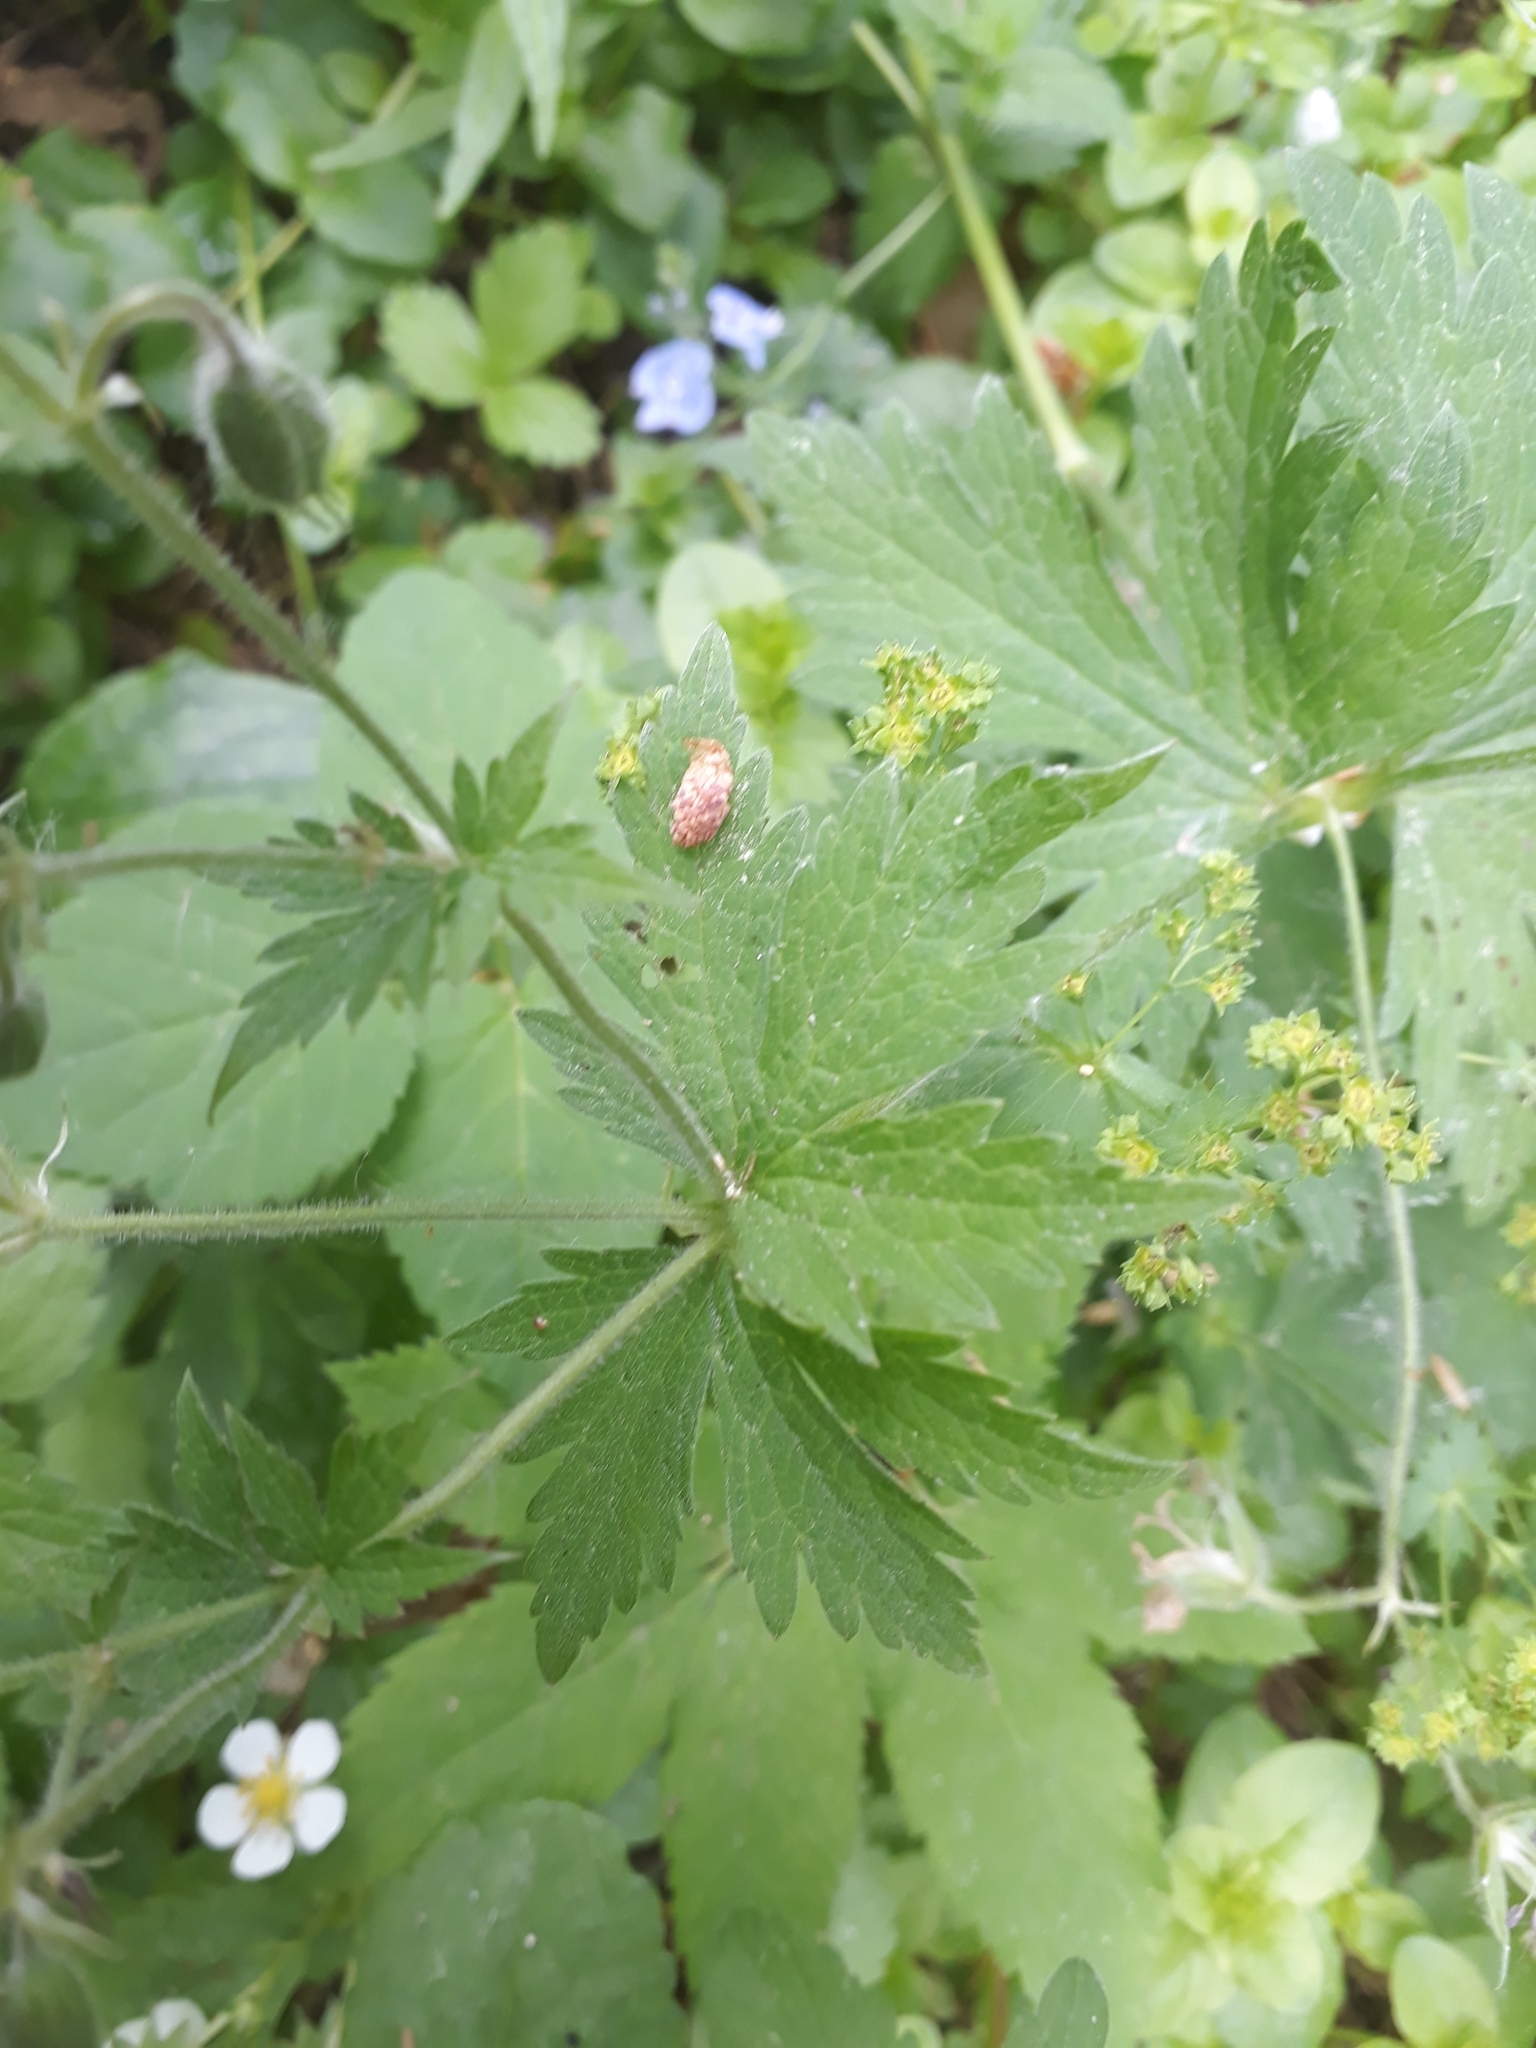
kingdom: Plantae
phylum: Tracheophyta
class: Magnoliopsida
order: Geraniales
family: Geraniaceae
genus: Geranium
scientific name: Geranium sylvaticum
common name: Wood crane's-bill
